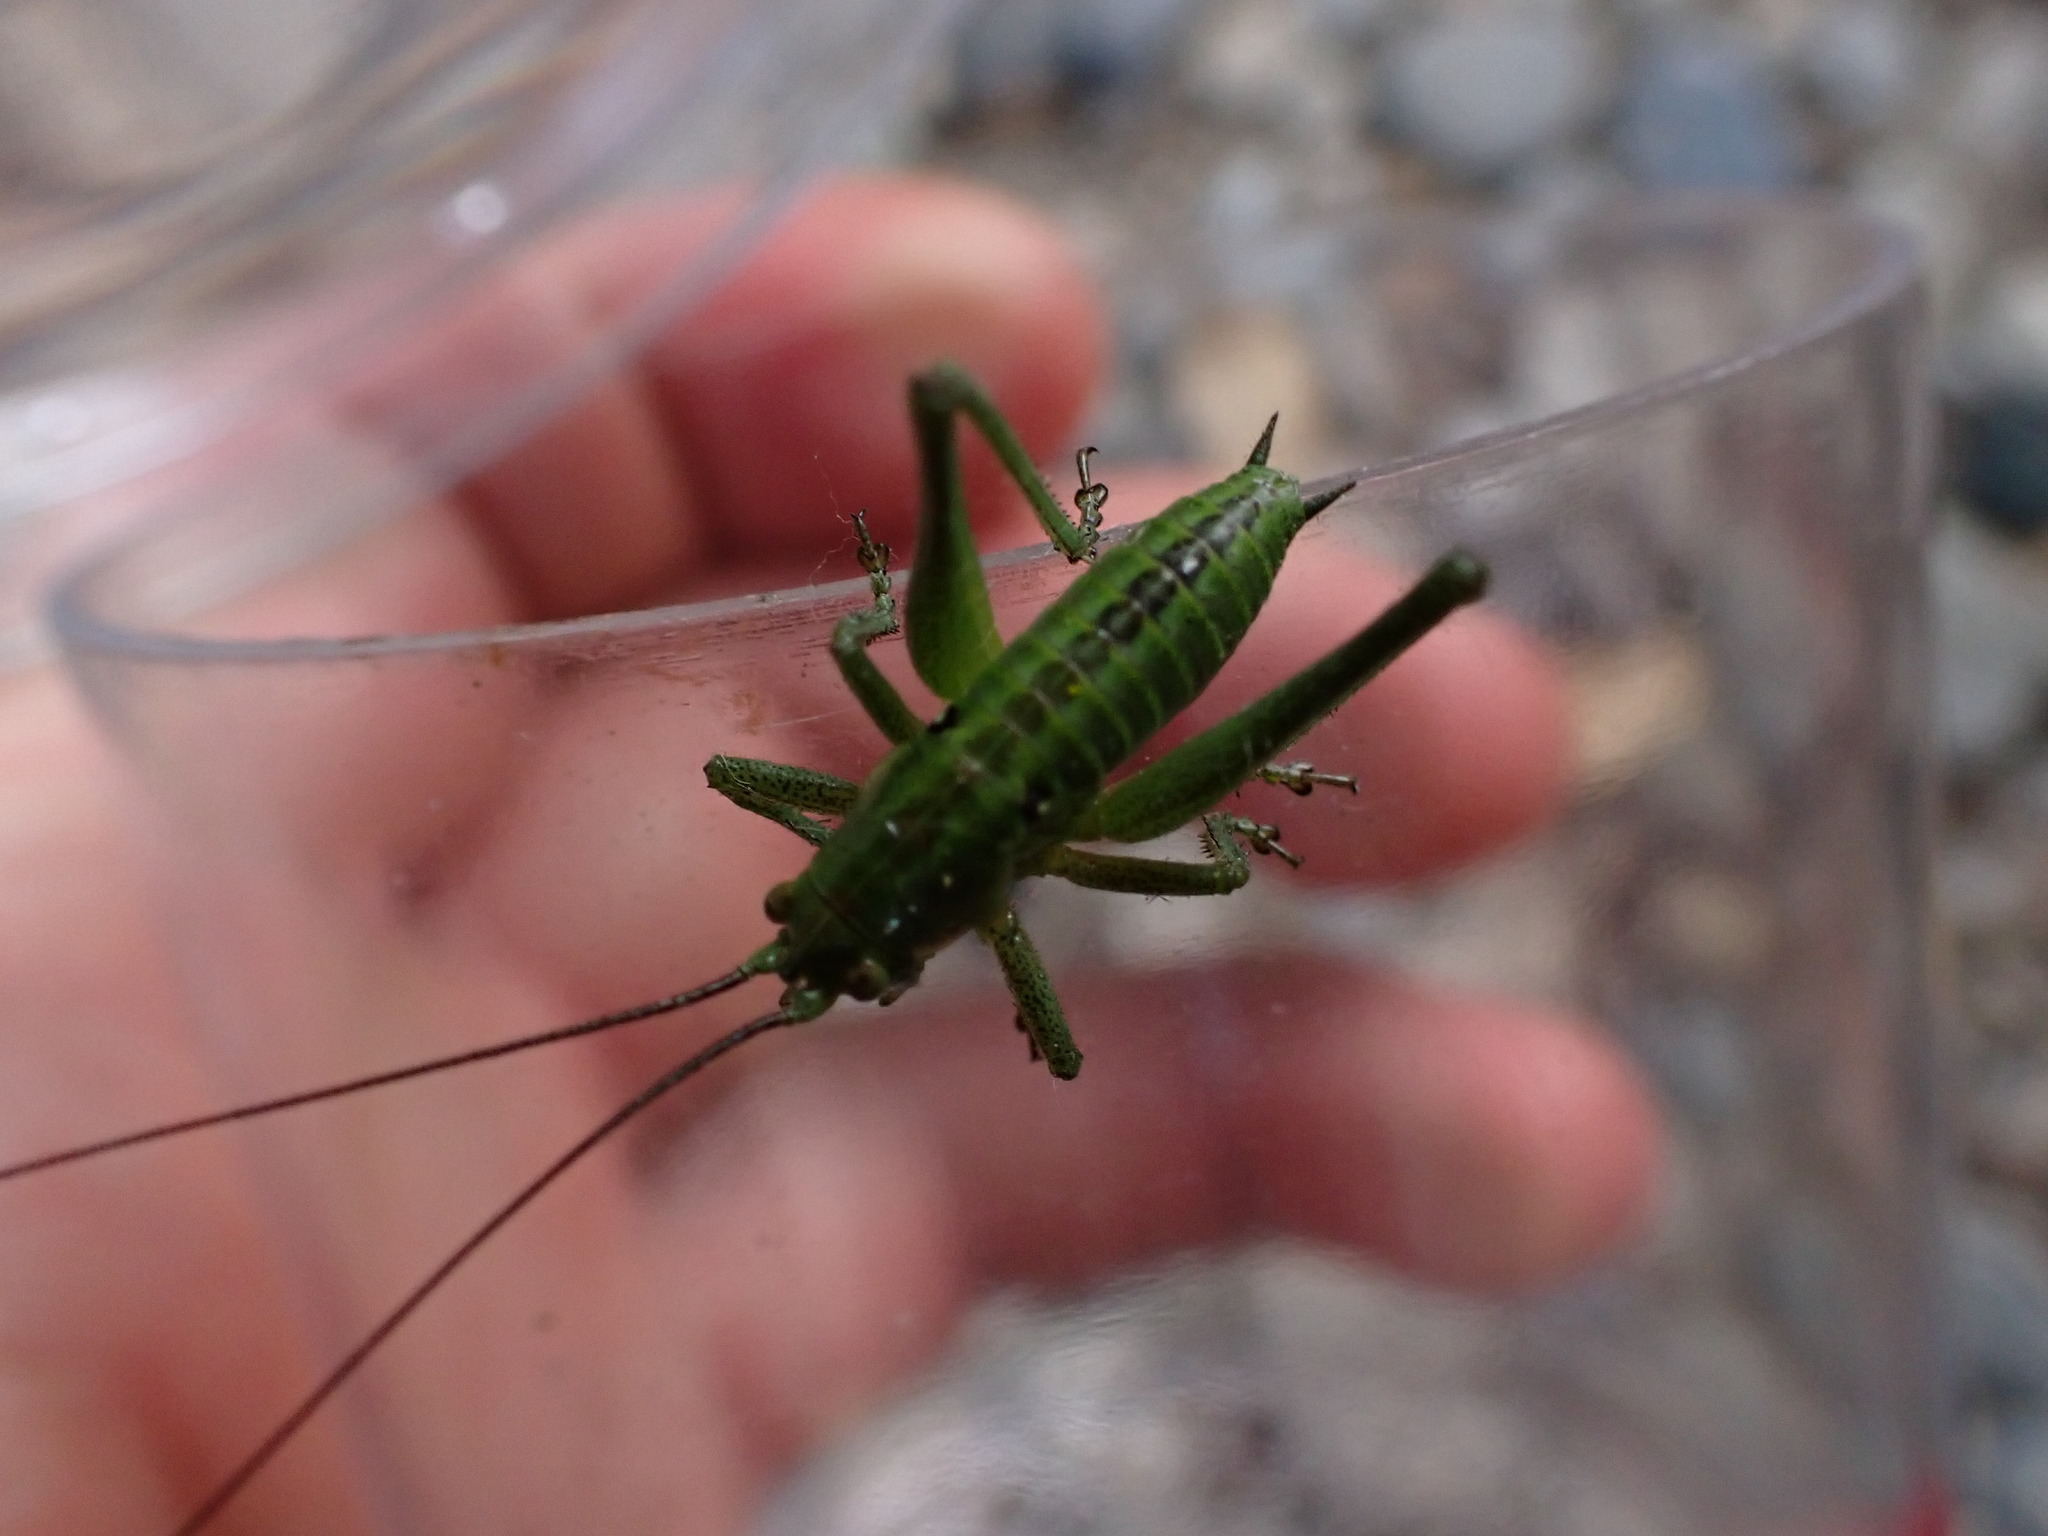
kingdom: Animalia
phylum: Arthropoda
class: Insecta
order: Orthoptera
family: Tettigoniidae
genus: Tettigonia
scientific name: Tettigonia viridissima
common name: Great green bush-cricket
